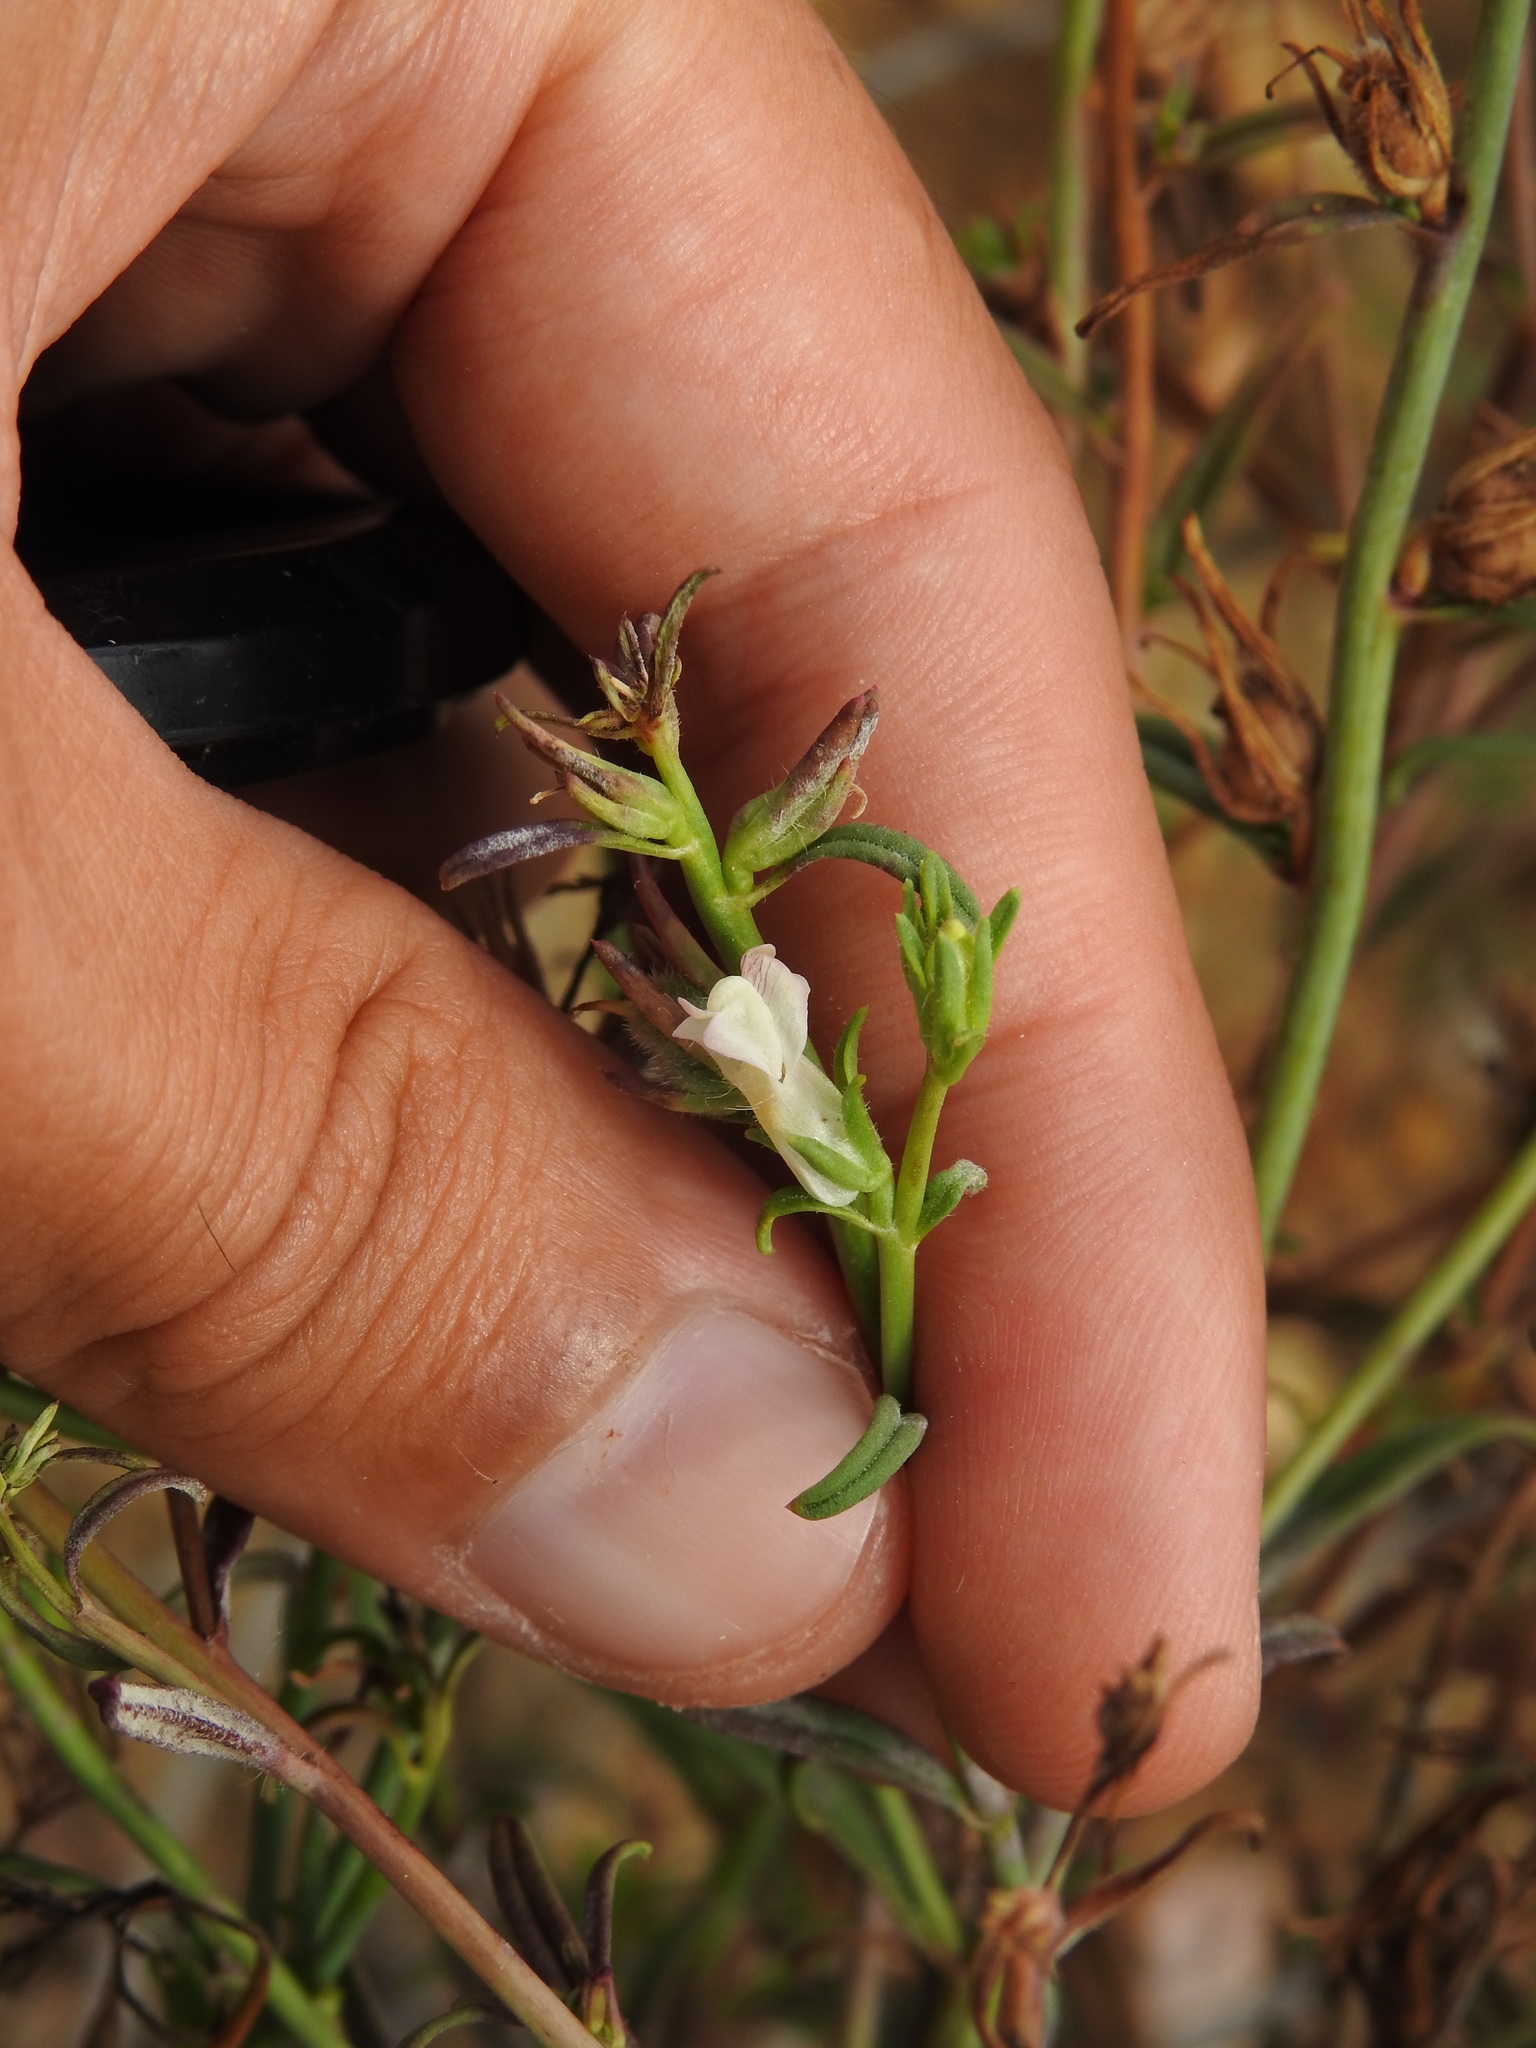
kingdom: Plantae
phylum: Tracheophyta
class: Magnoliopsida
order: Lamiales
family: Plantaginaceae
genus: Misopates
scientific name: Misopates calycinum
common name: Pale weasel's-snout
